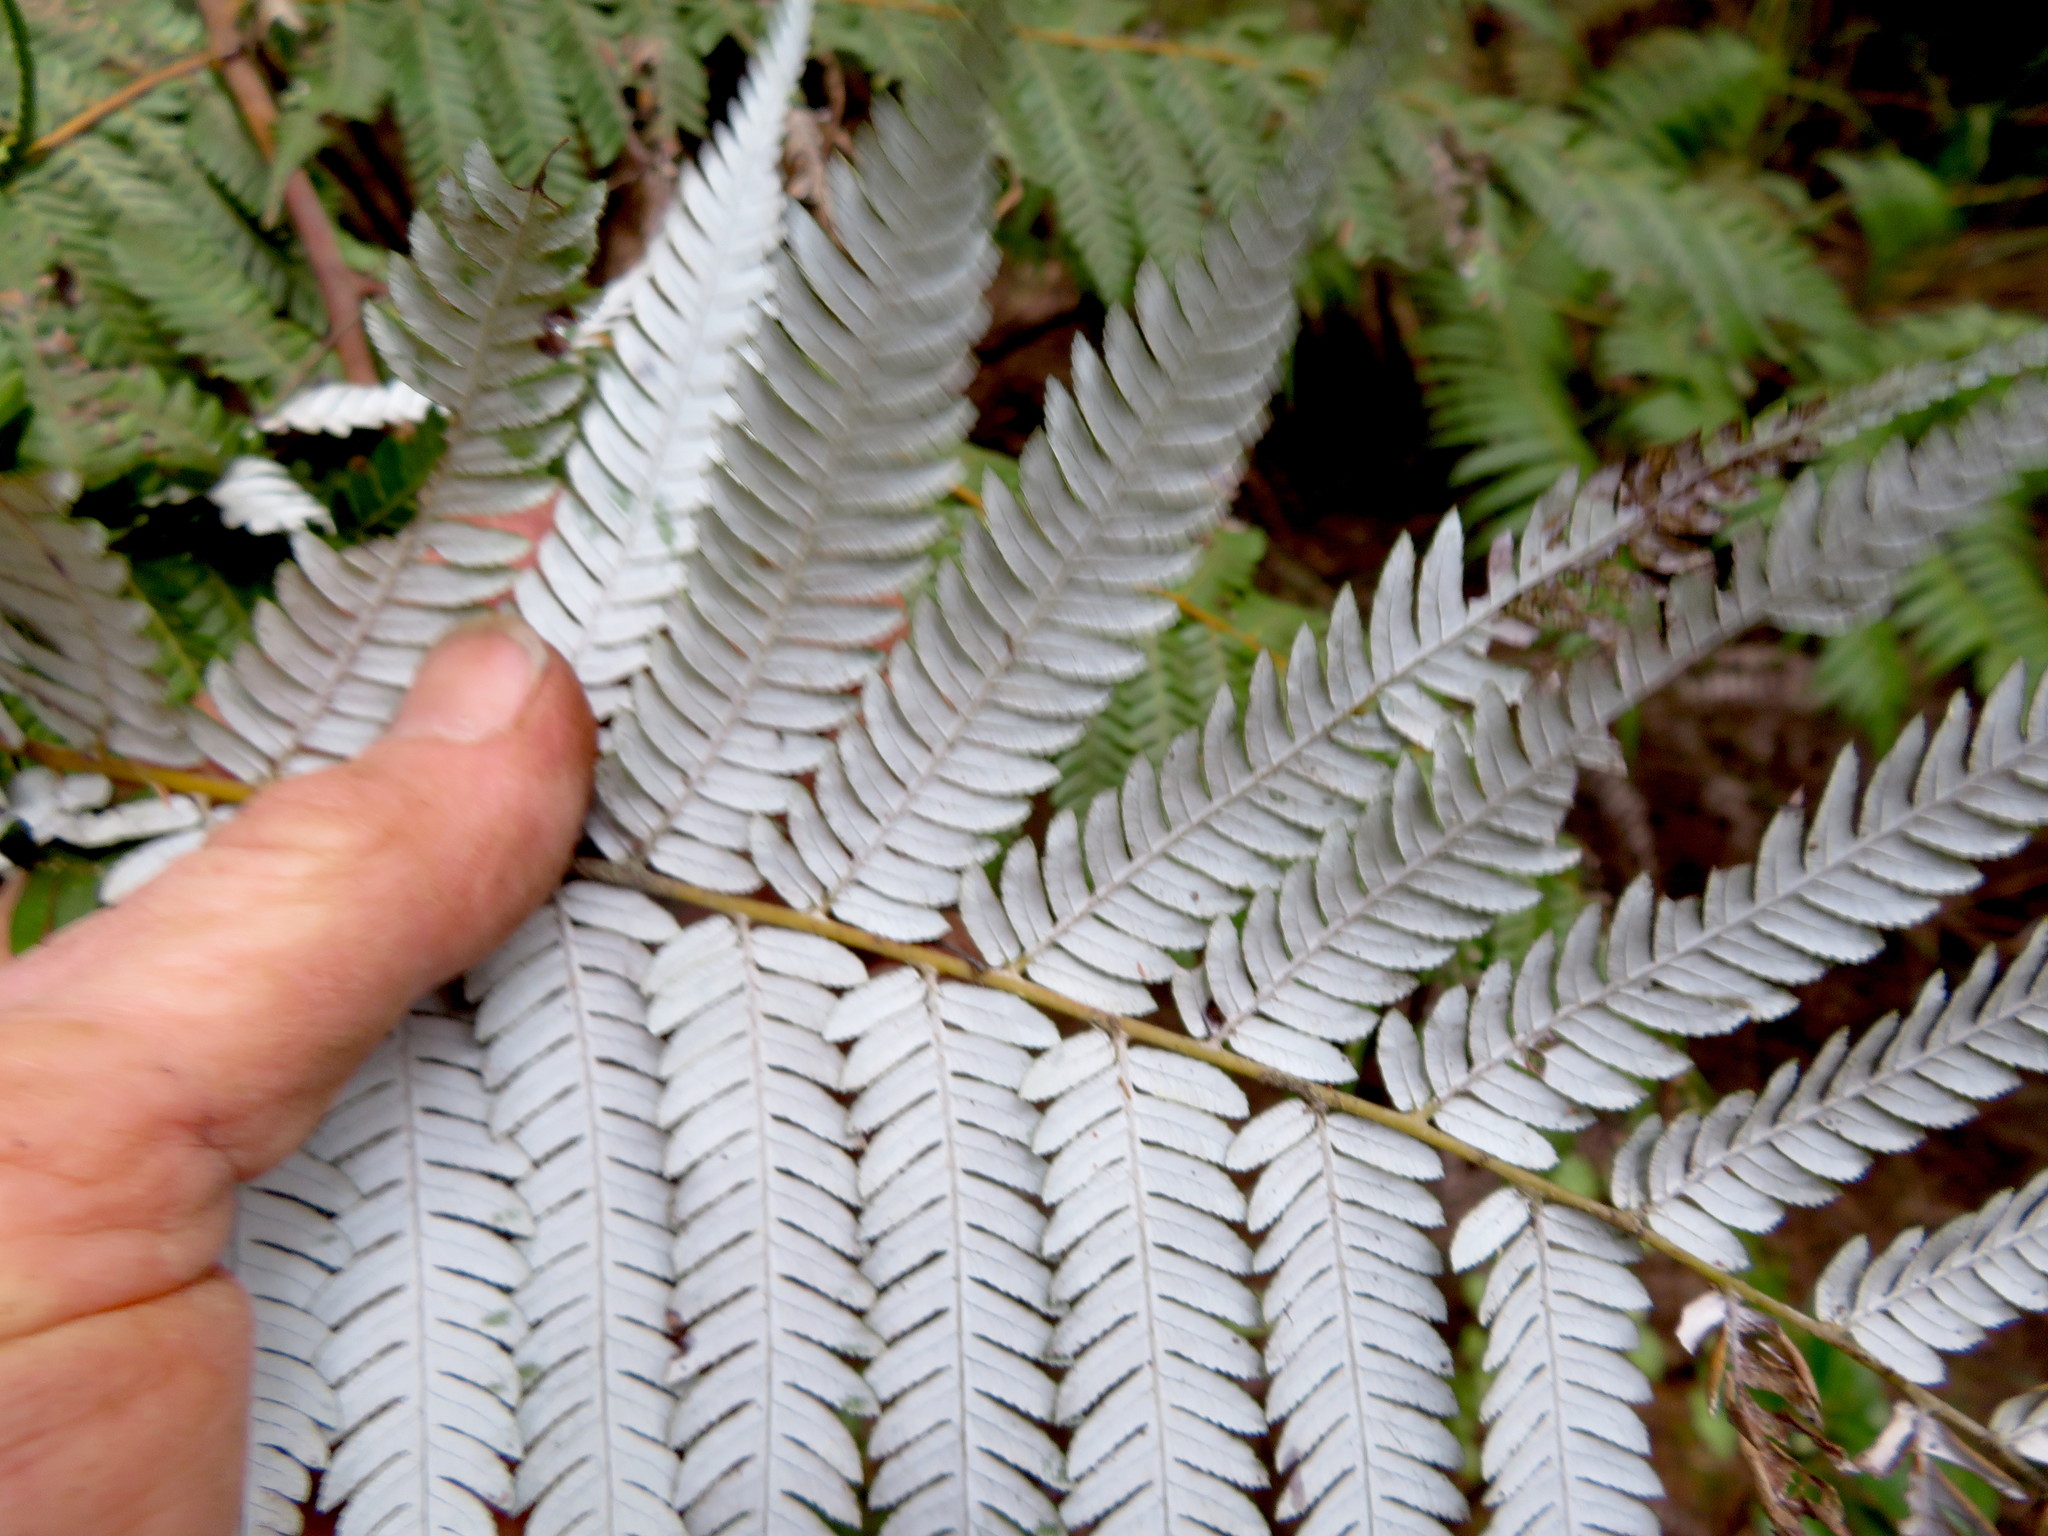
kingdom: Plantae
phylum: Tracheophyta
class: Polypodiopsida
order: Cyatheales
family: Cyatheaceae
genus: Alsophila
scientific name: Alsophila dealbata
